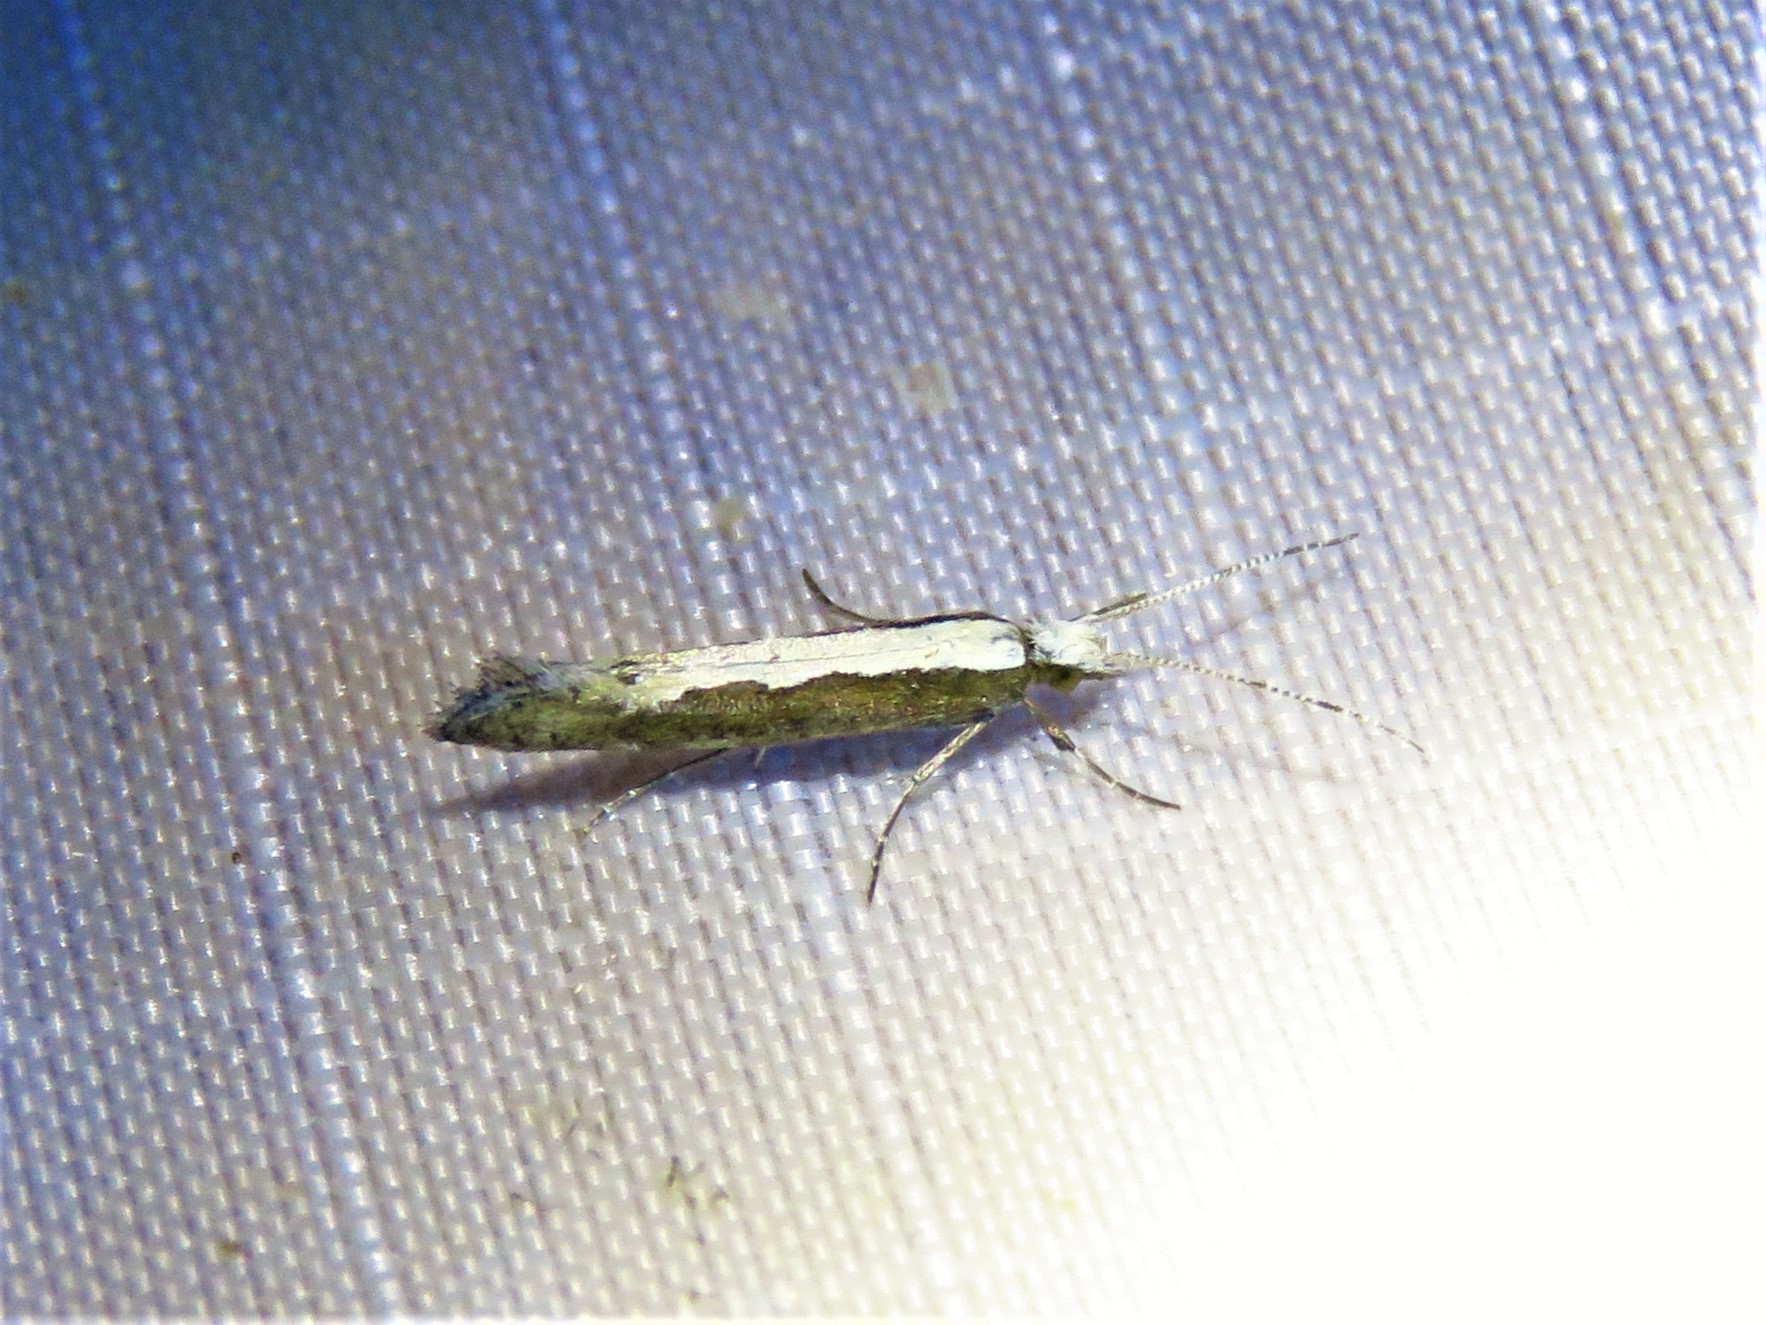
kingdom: Animalia
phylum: Arthropoda
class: Insecta
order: Lepidoptera
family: Plutellidae
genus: Plutella
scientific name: Plutella xylostella
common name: Diamond-back moth
